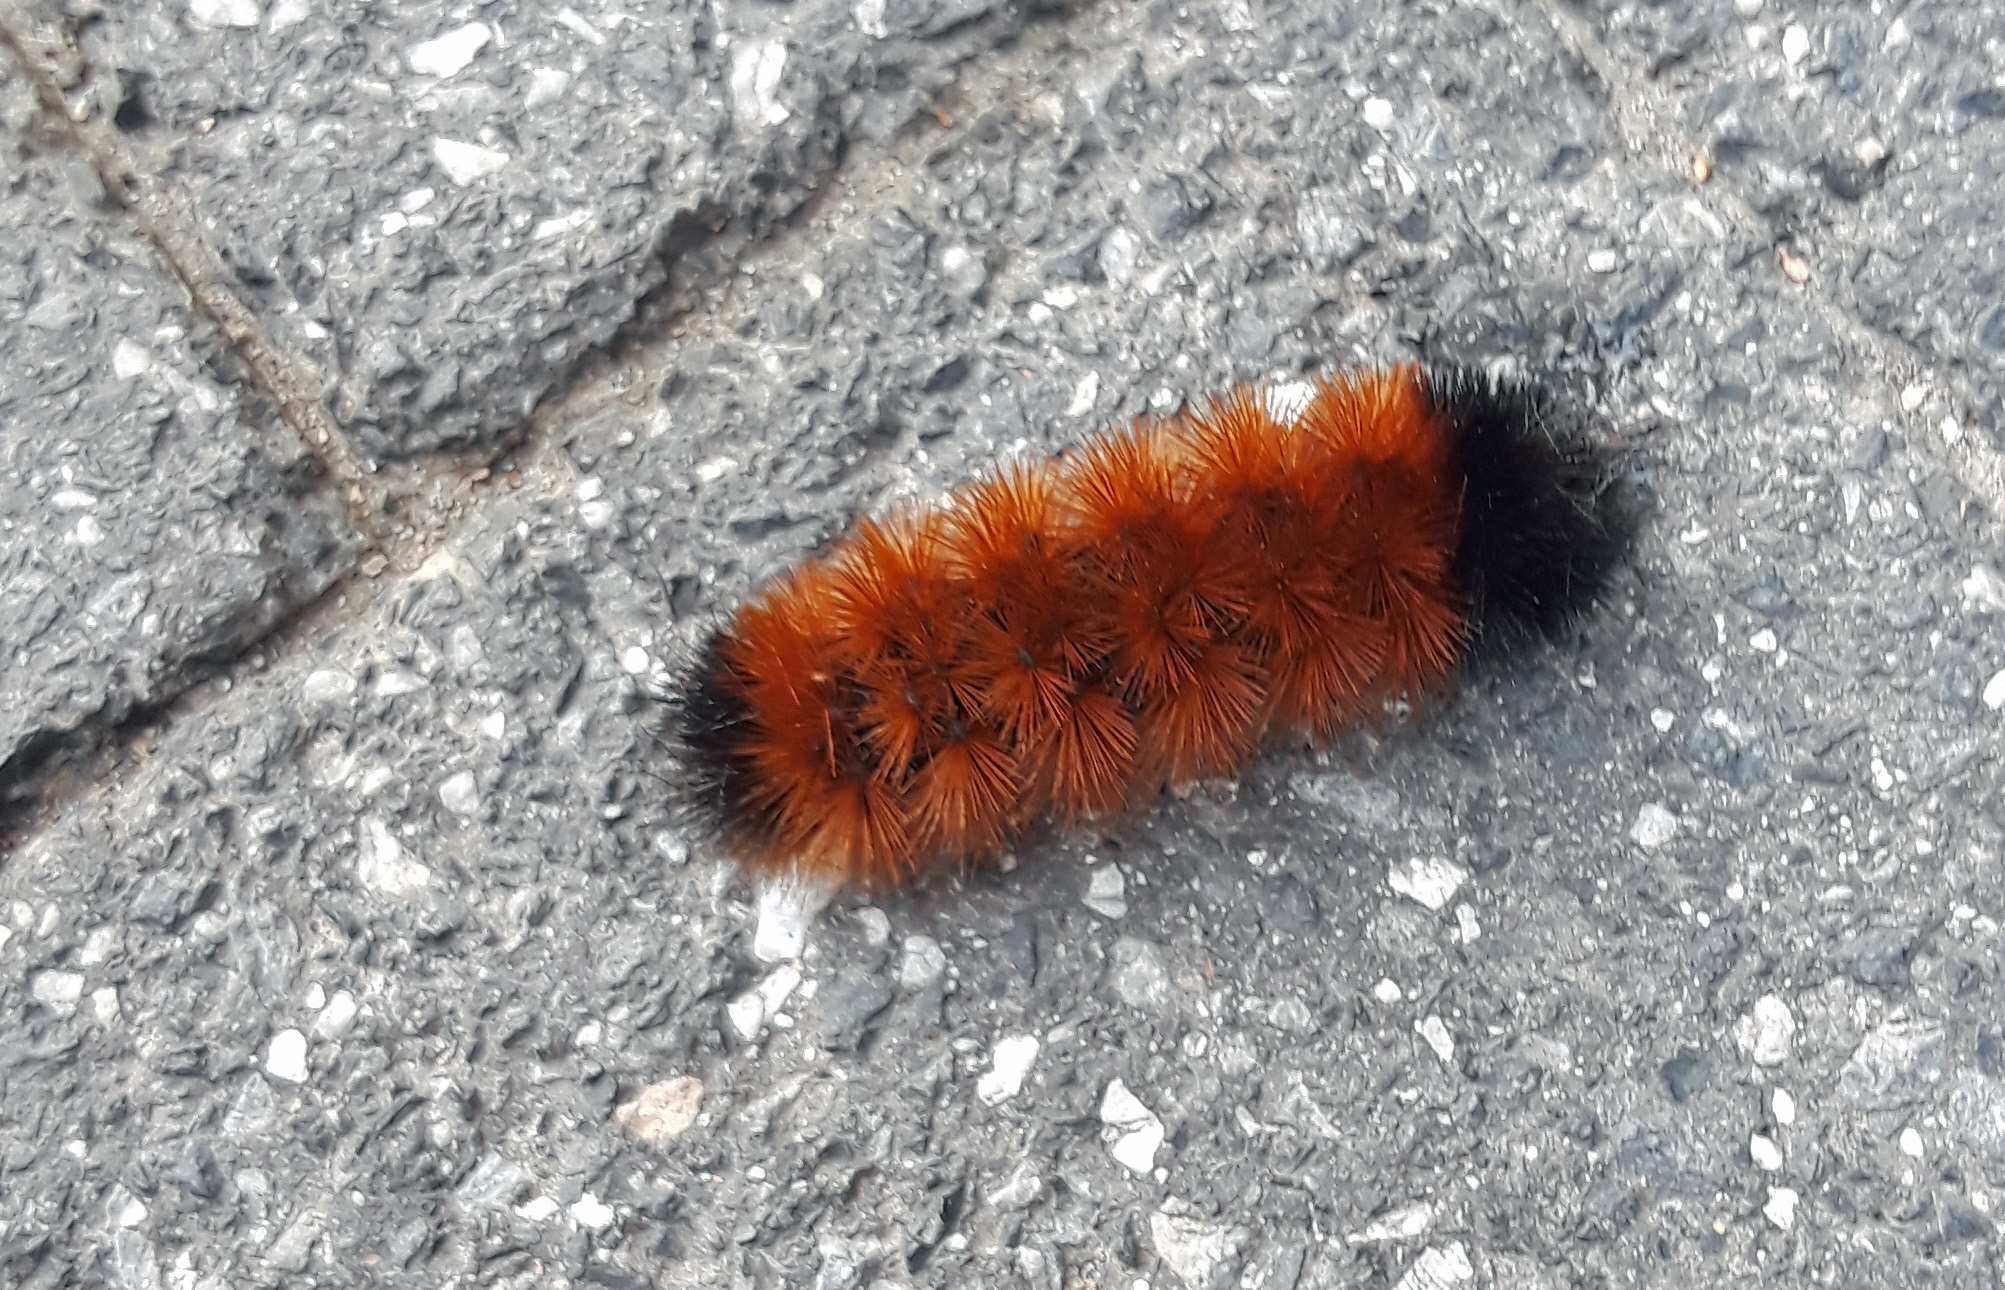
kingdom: Animalia
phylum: Arthropoda
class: Insecta
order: Lepidoptera
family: Erebidae
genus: Pyrrharctia
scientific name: Pyrrharctia isabella
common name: Isabella tiger moth
